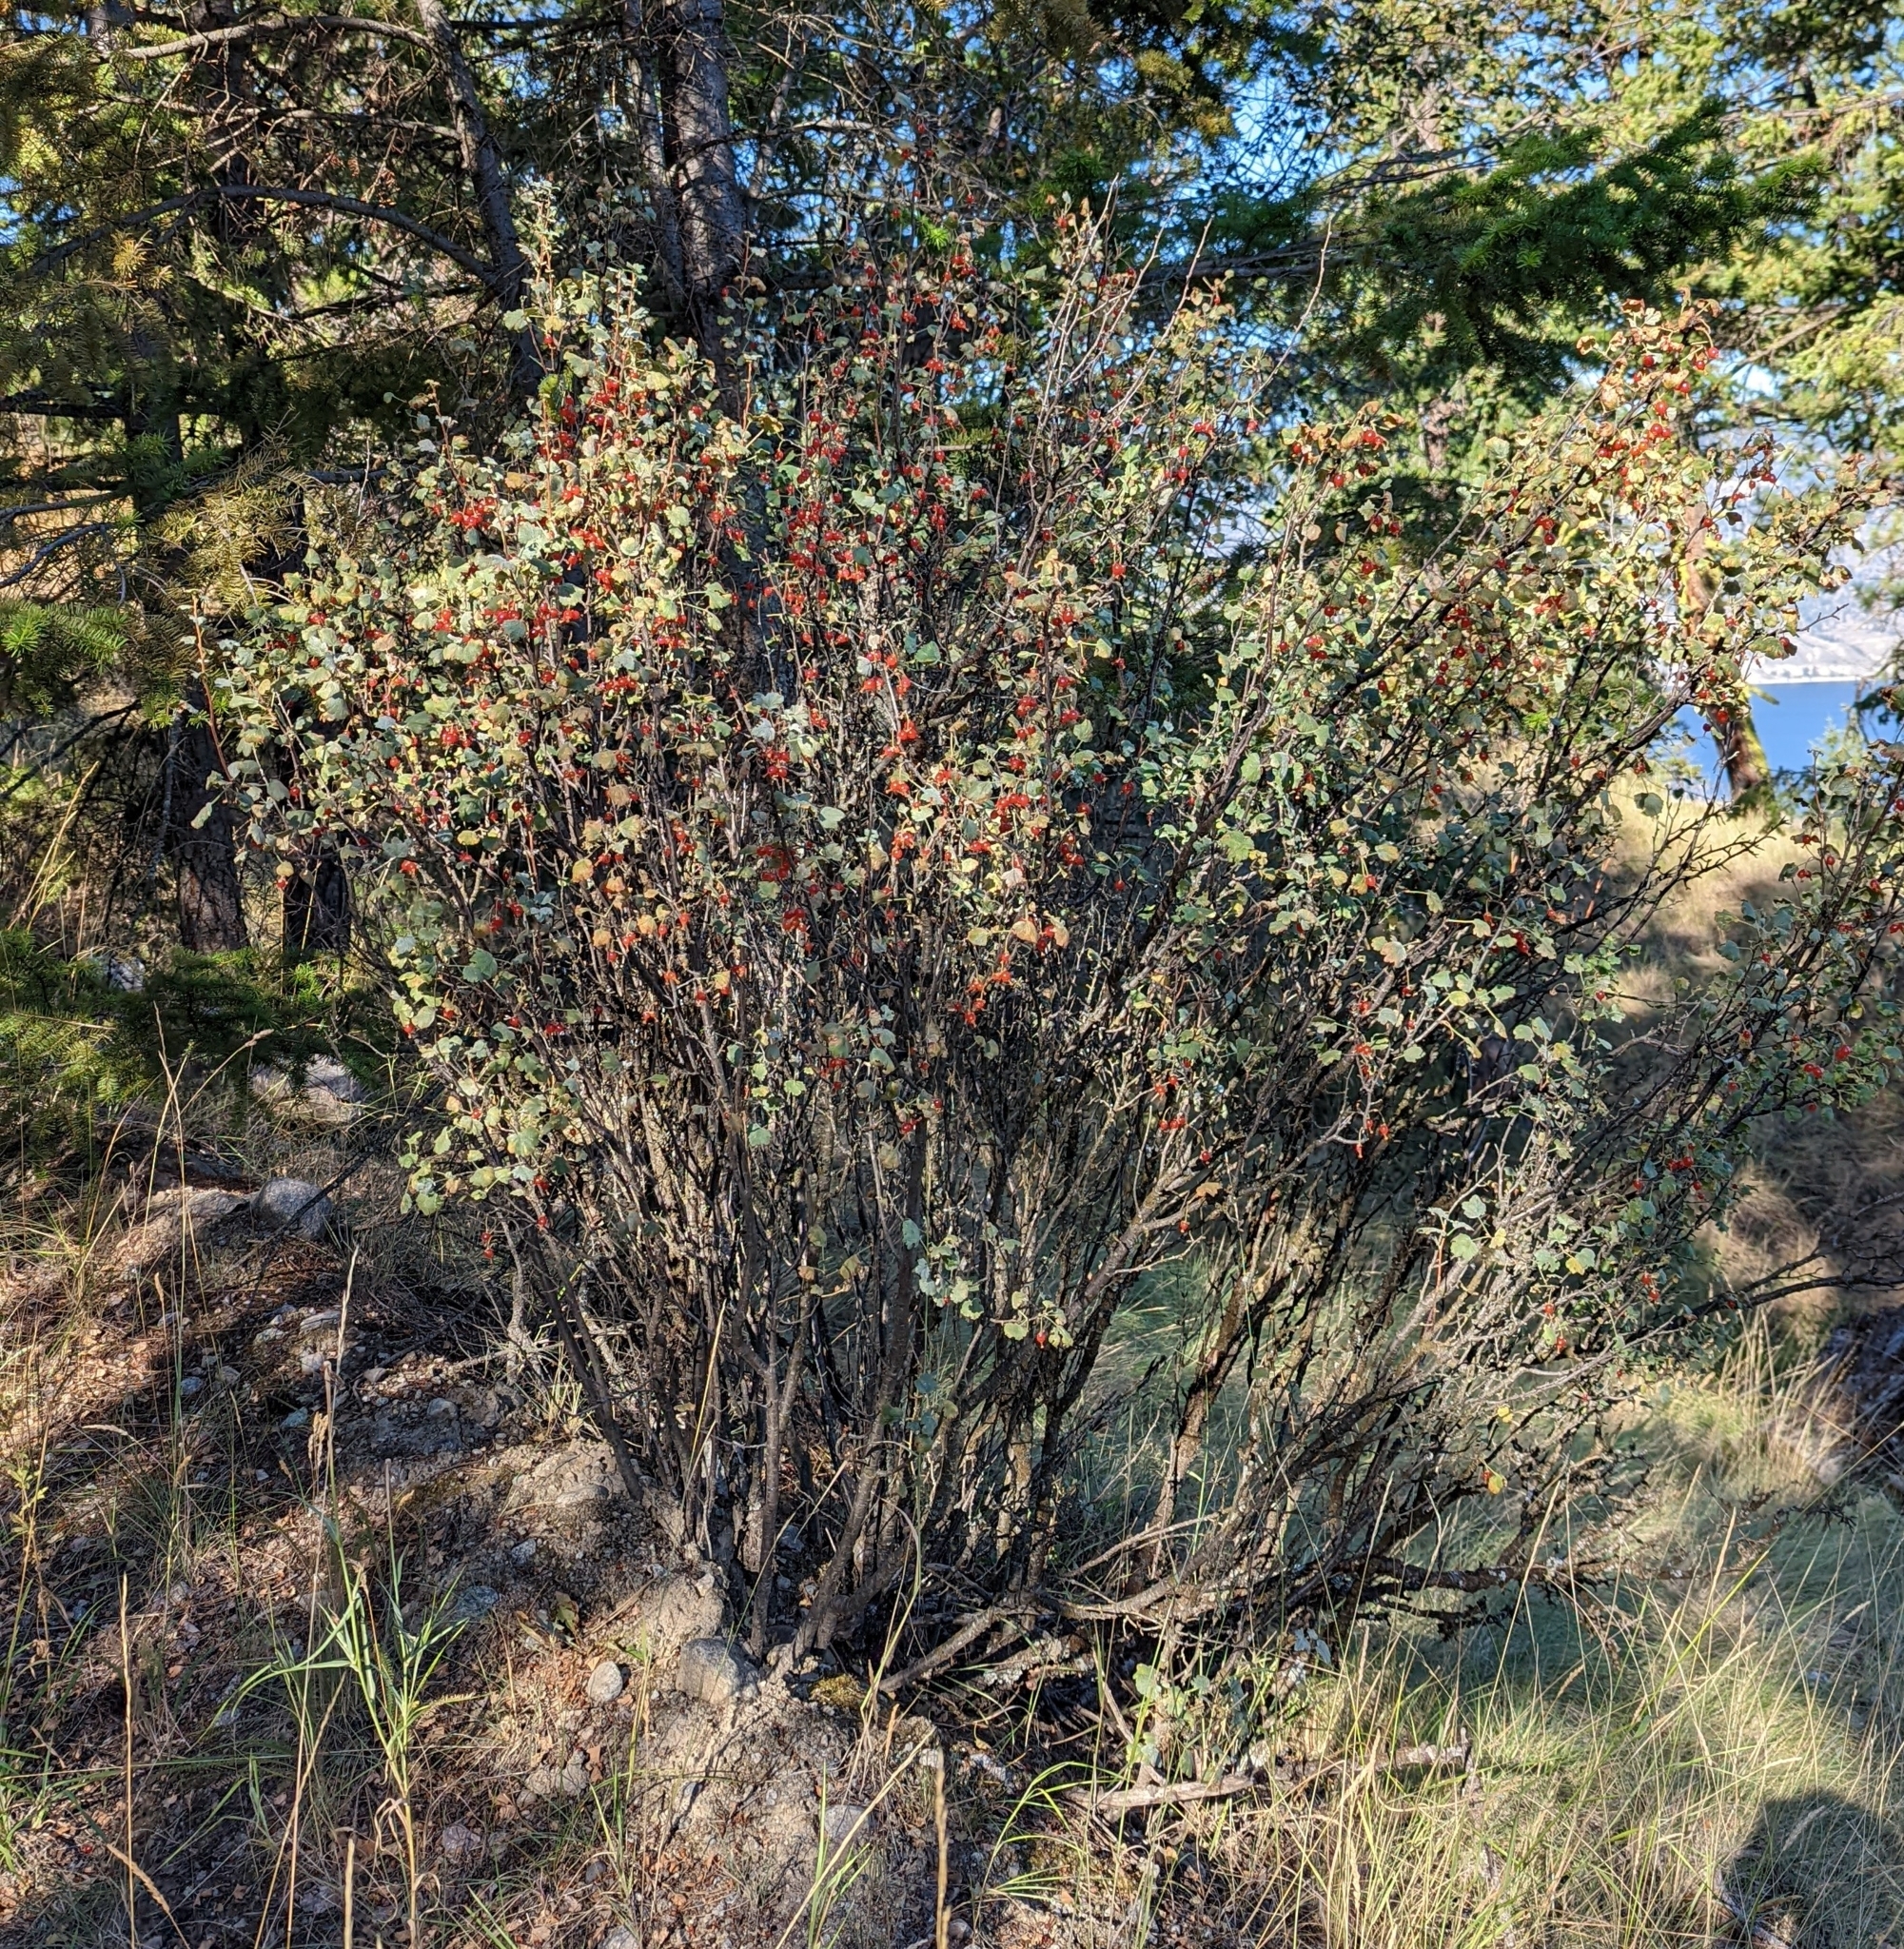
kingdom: Plantae
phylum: Tracheophyta
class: Magnoliopsida
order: Saxifragales
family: Grossulariaceae
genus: Ribes
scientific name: Ribes cereum
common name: Wax currant
